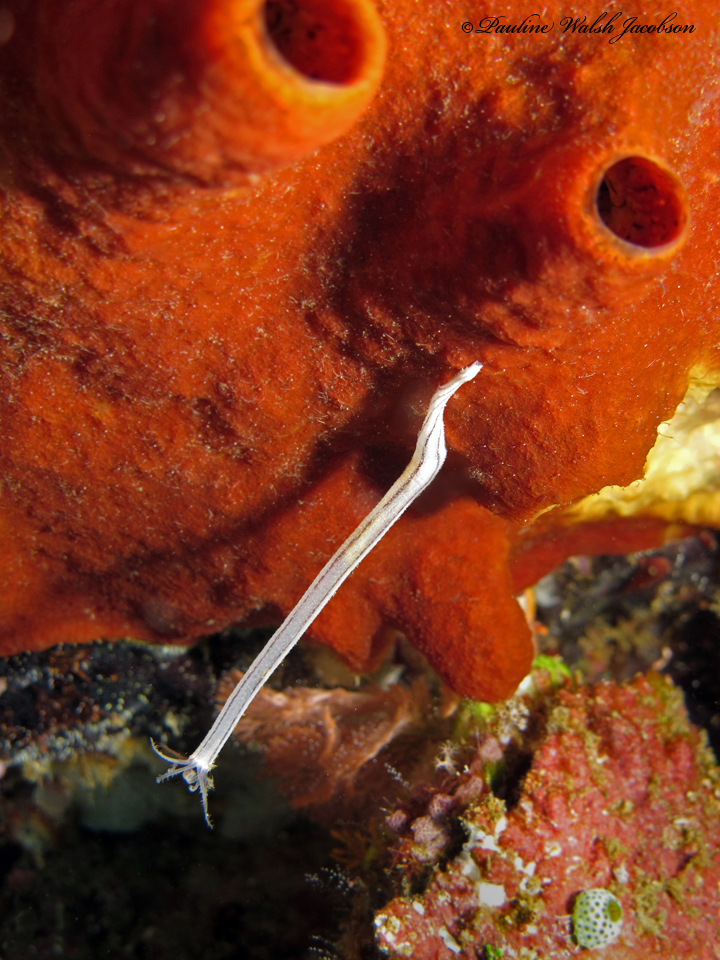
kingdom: Animalia
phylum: Echinodermata
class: Holothuroidea
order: Apodida
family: Synaptidae
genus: Synaptula
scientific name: Synaptula lamperti
